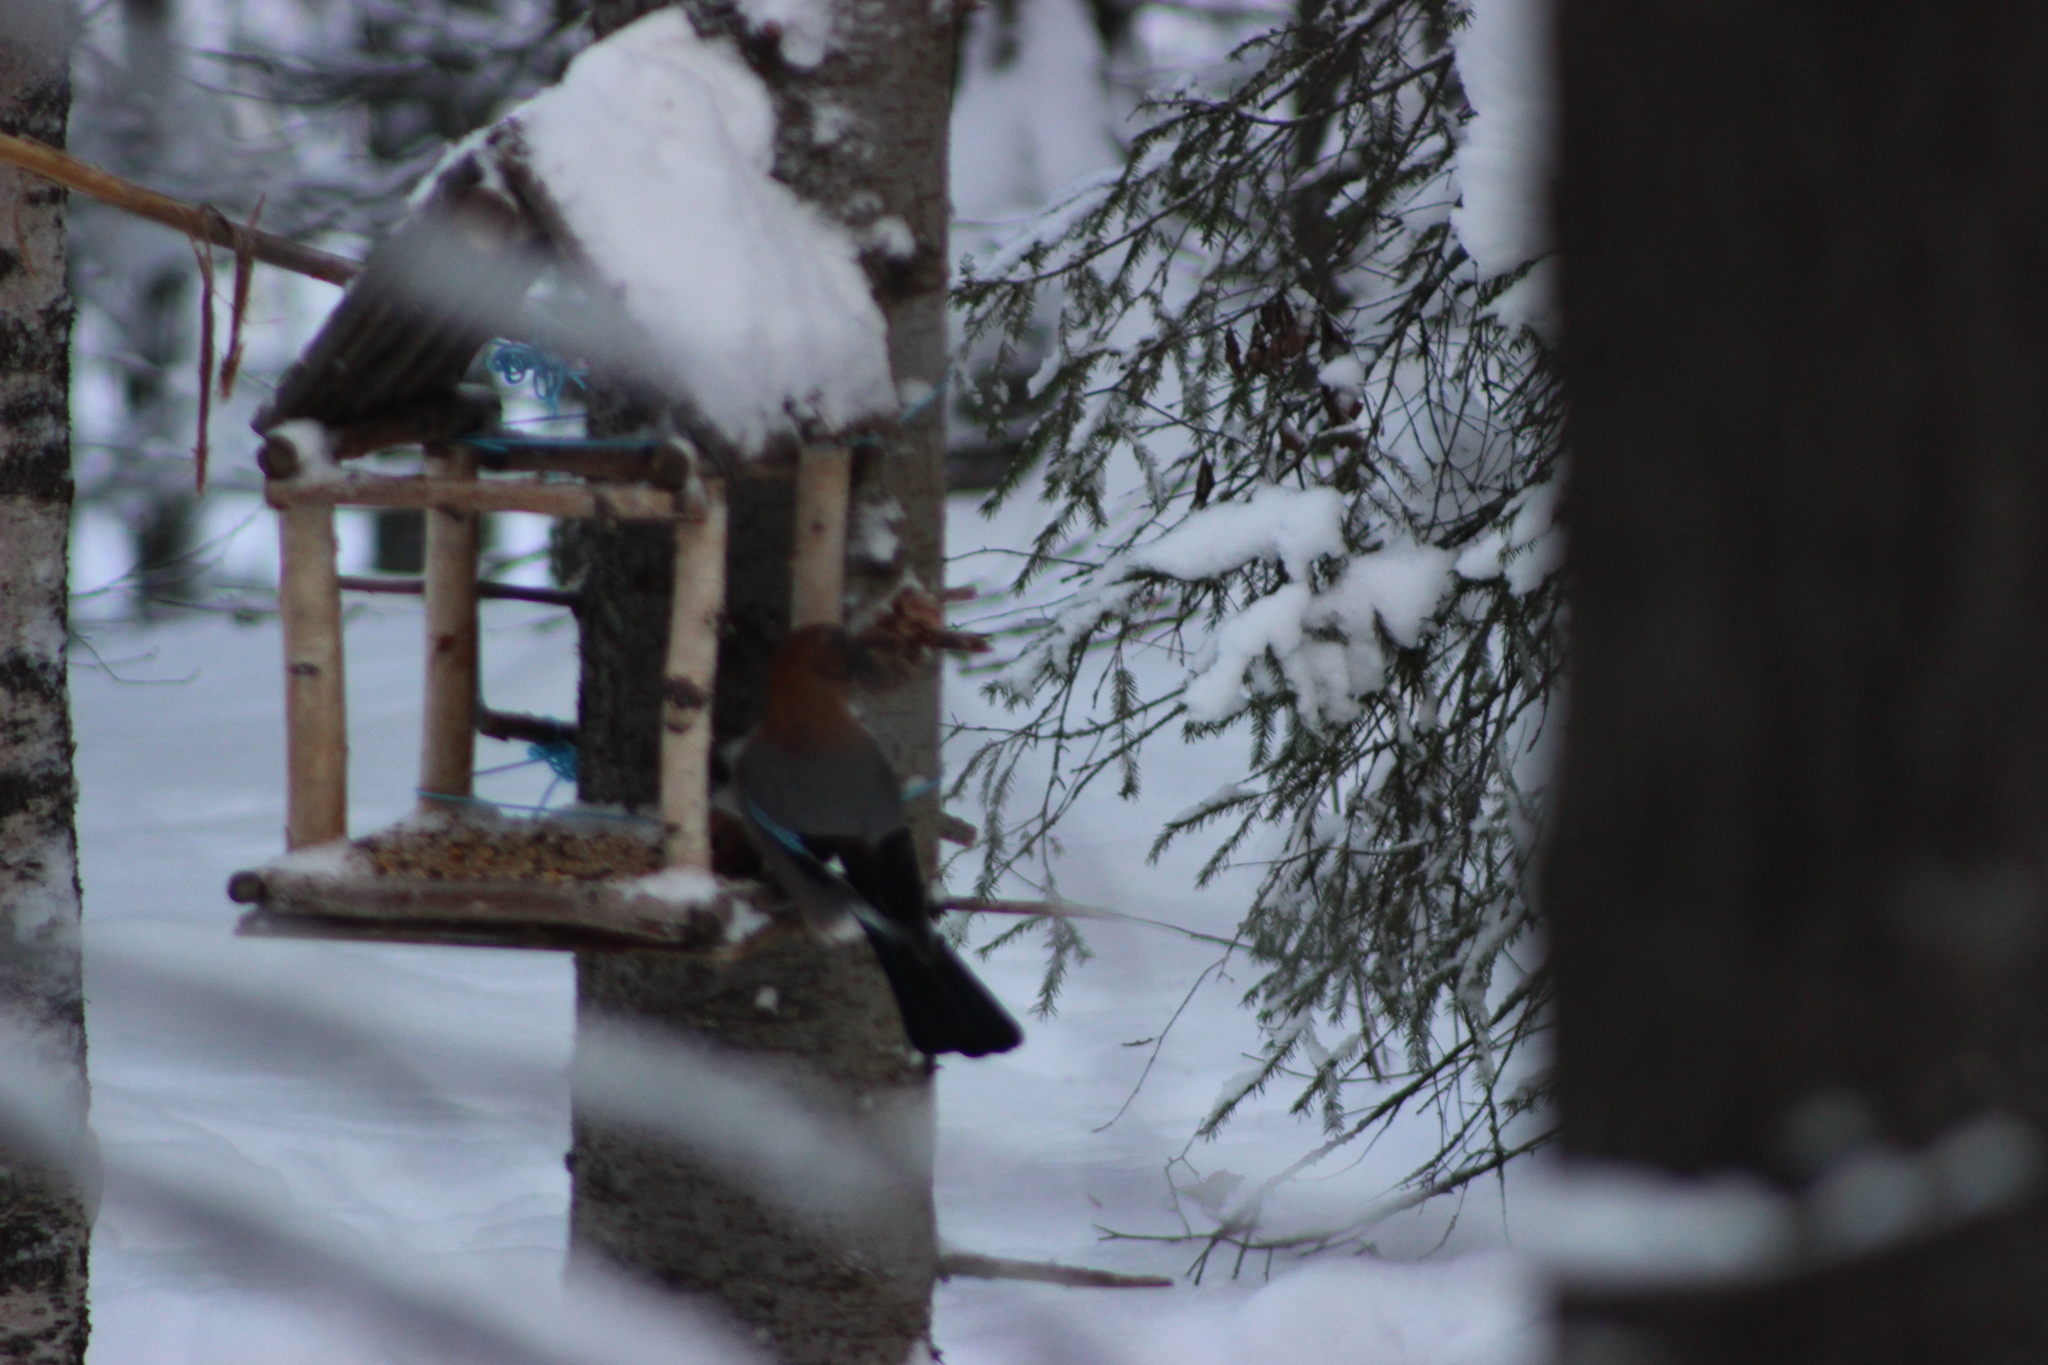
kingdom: Animalia
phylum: Chordata
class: Aves
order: Passeriformes
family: Corvidae
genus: Garrulus
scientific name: Garrulus glandarius
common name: Eurasian jay
